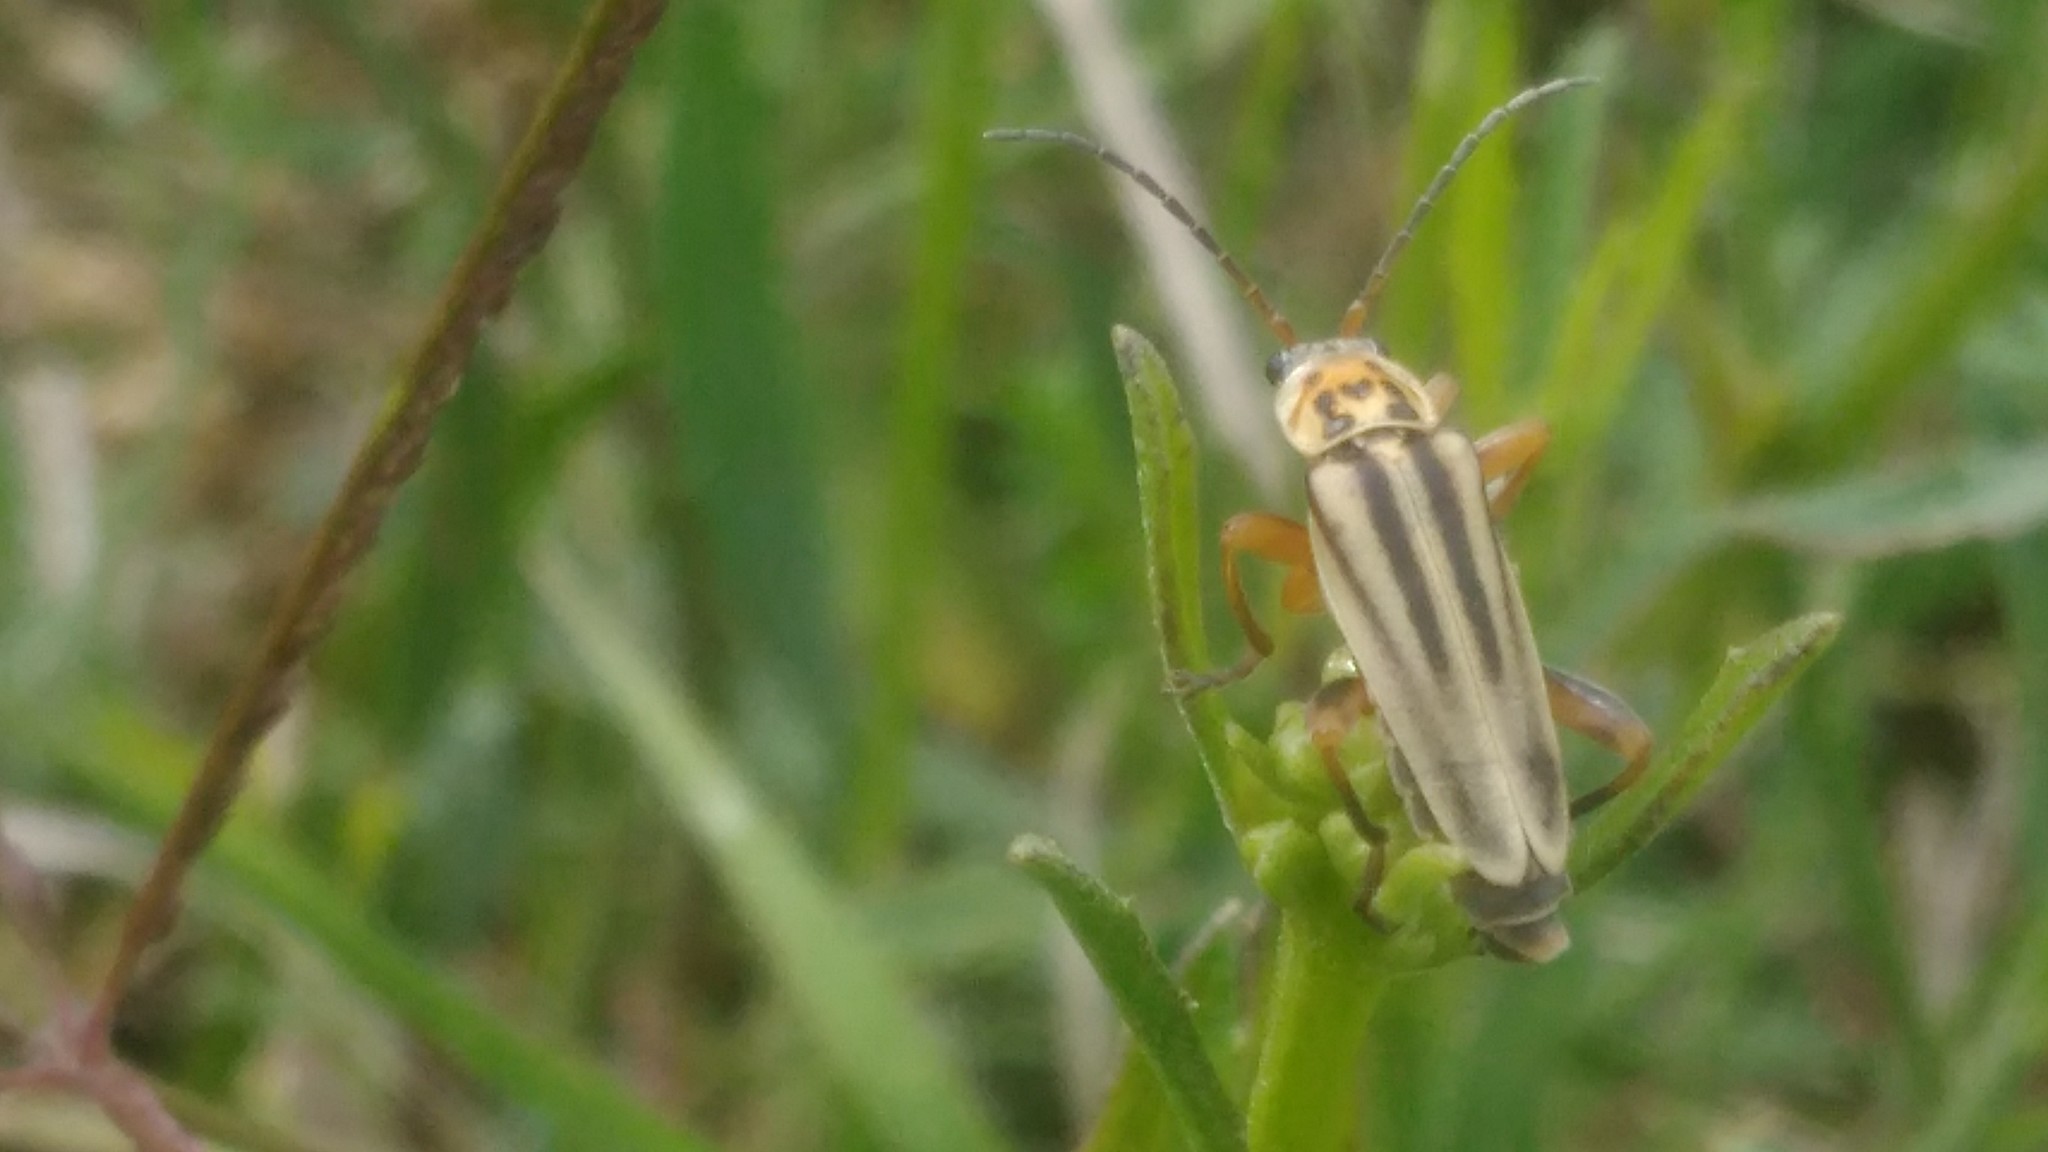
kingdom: Animalia
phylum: Arthropoda
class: Insecta
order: Coleoptera
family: Cantharidae
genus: Chauliognathus
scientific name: Chauliognathus
